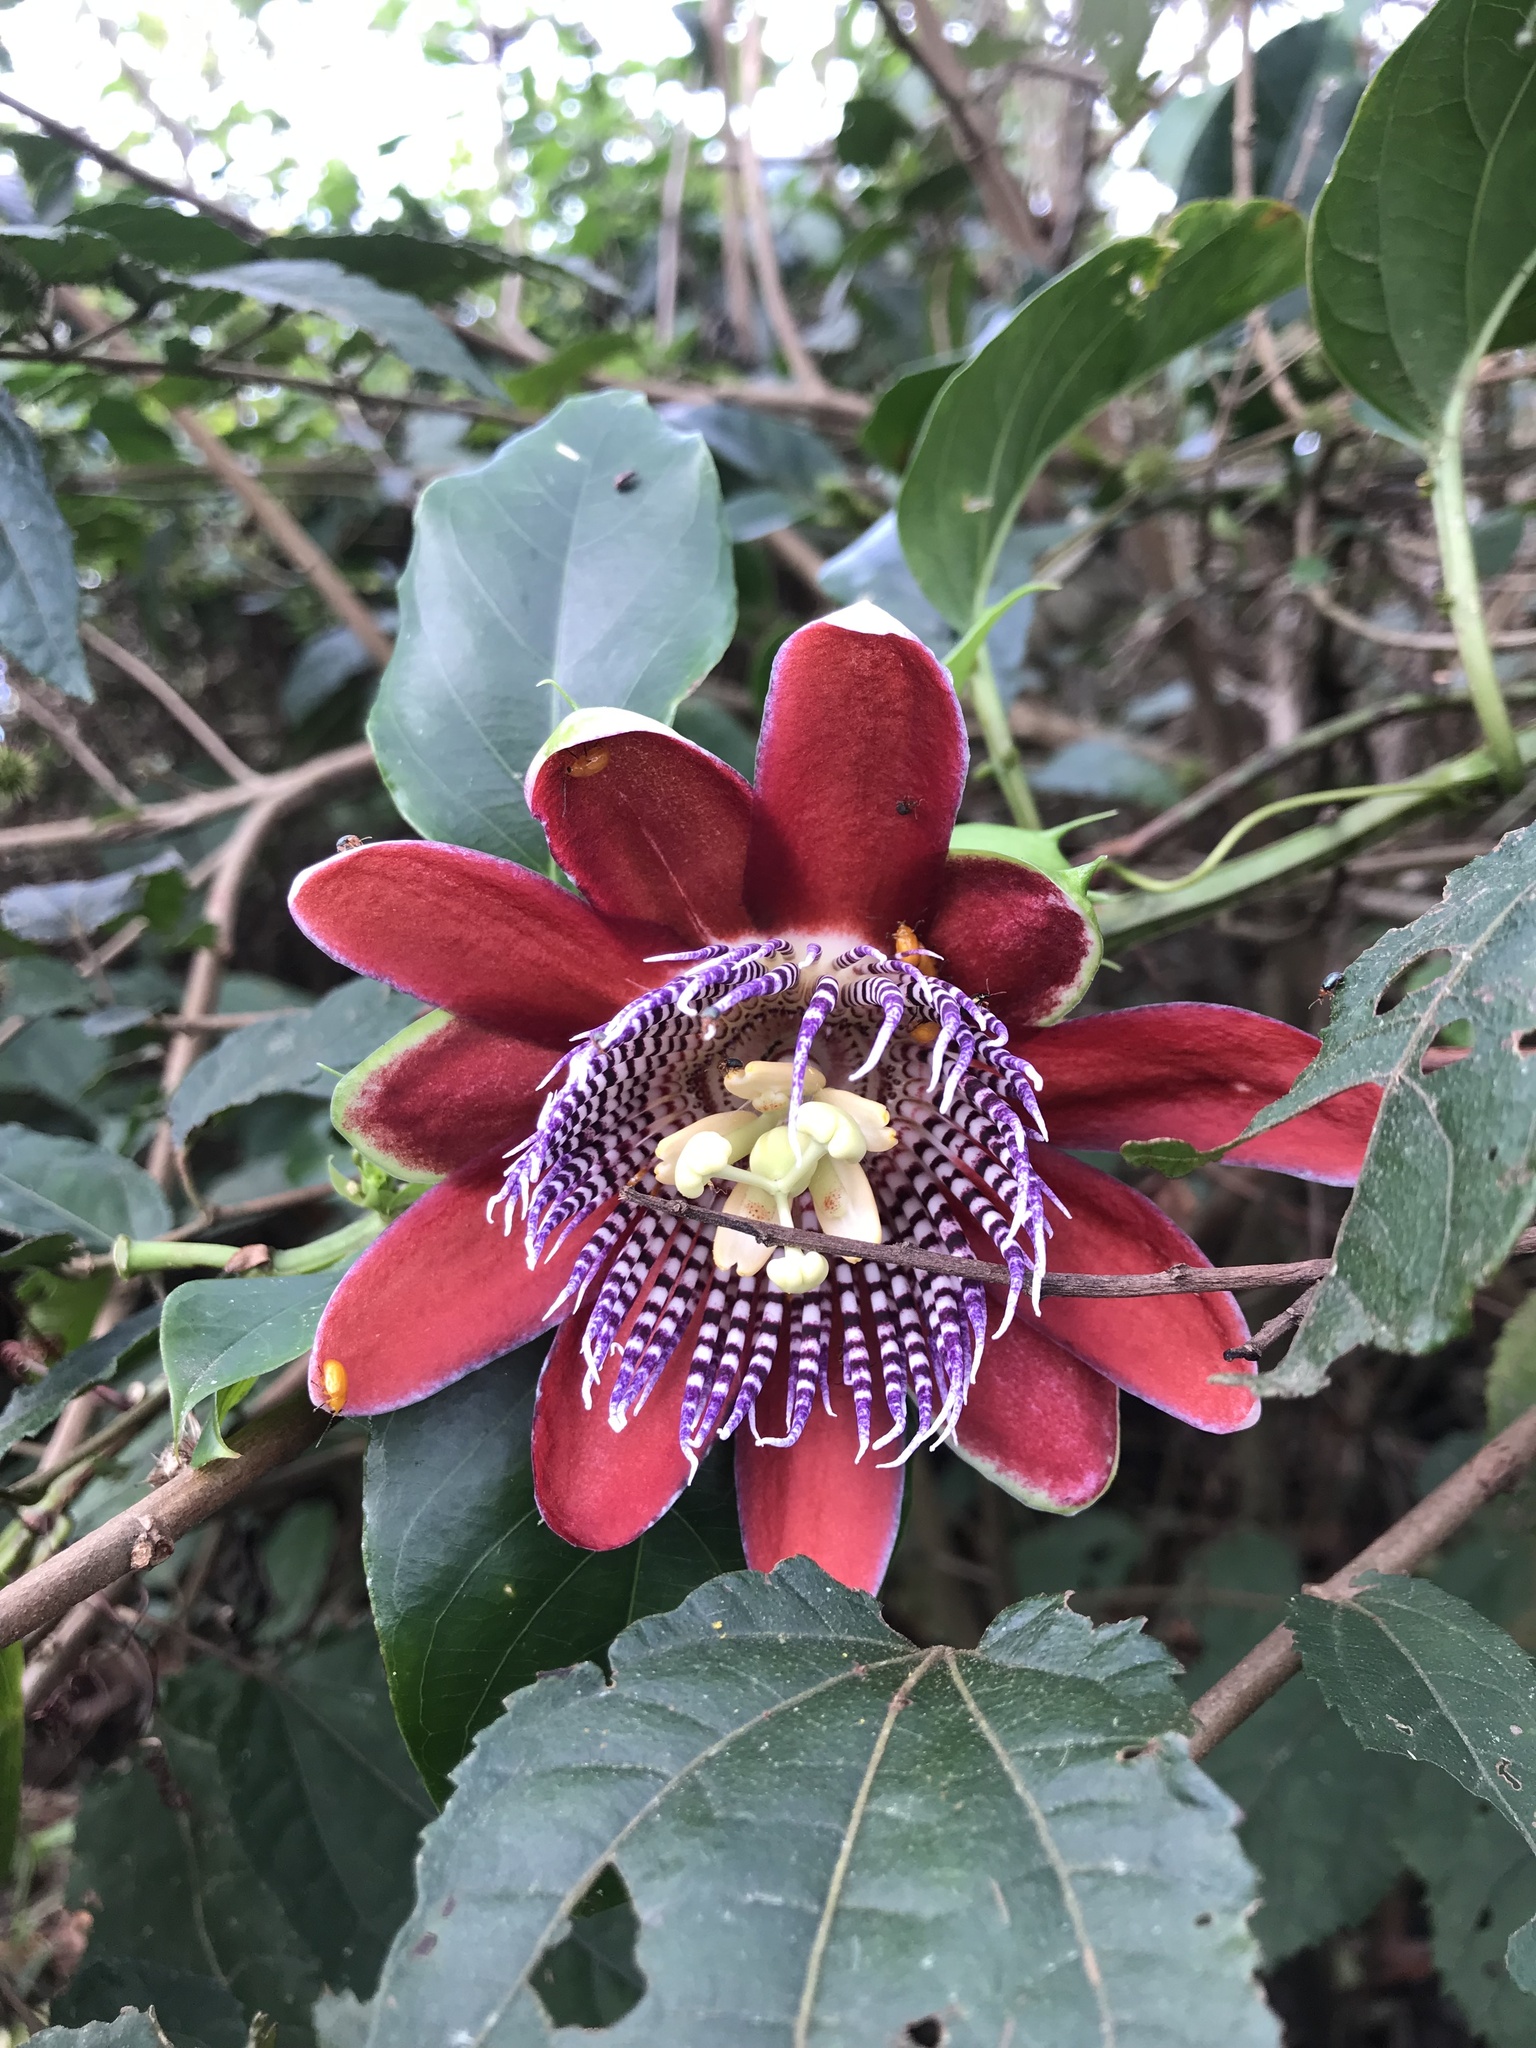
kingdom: Plantae
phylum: Tracheophyta
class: Magnoliopsida
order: Malpighiales
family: Passifloraceae
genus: Passiflora
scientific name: Passiflora alata
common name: Wing-stemmed passion flower
